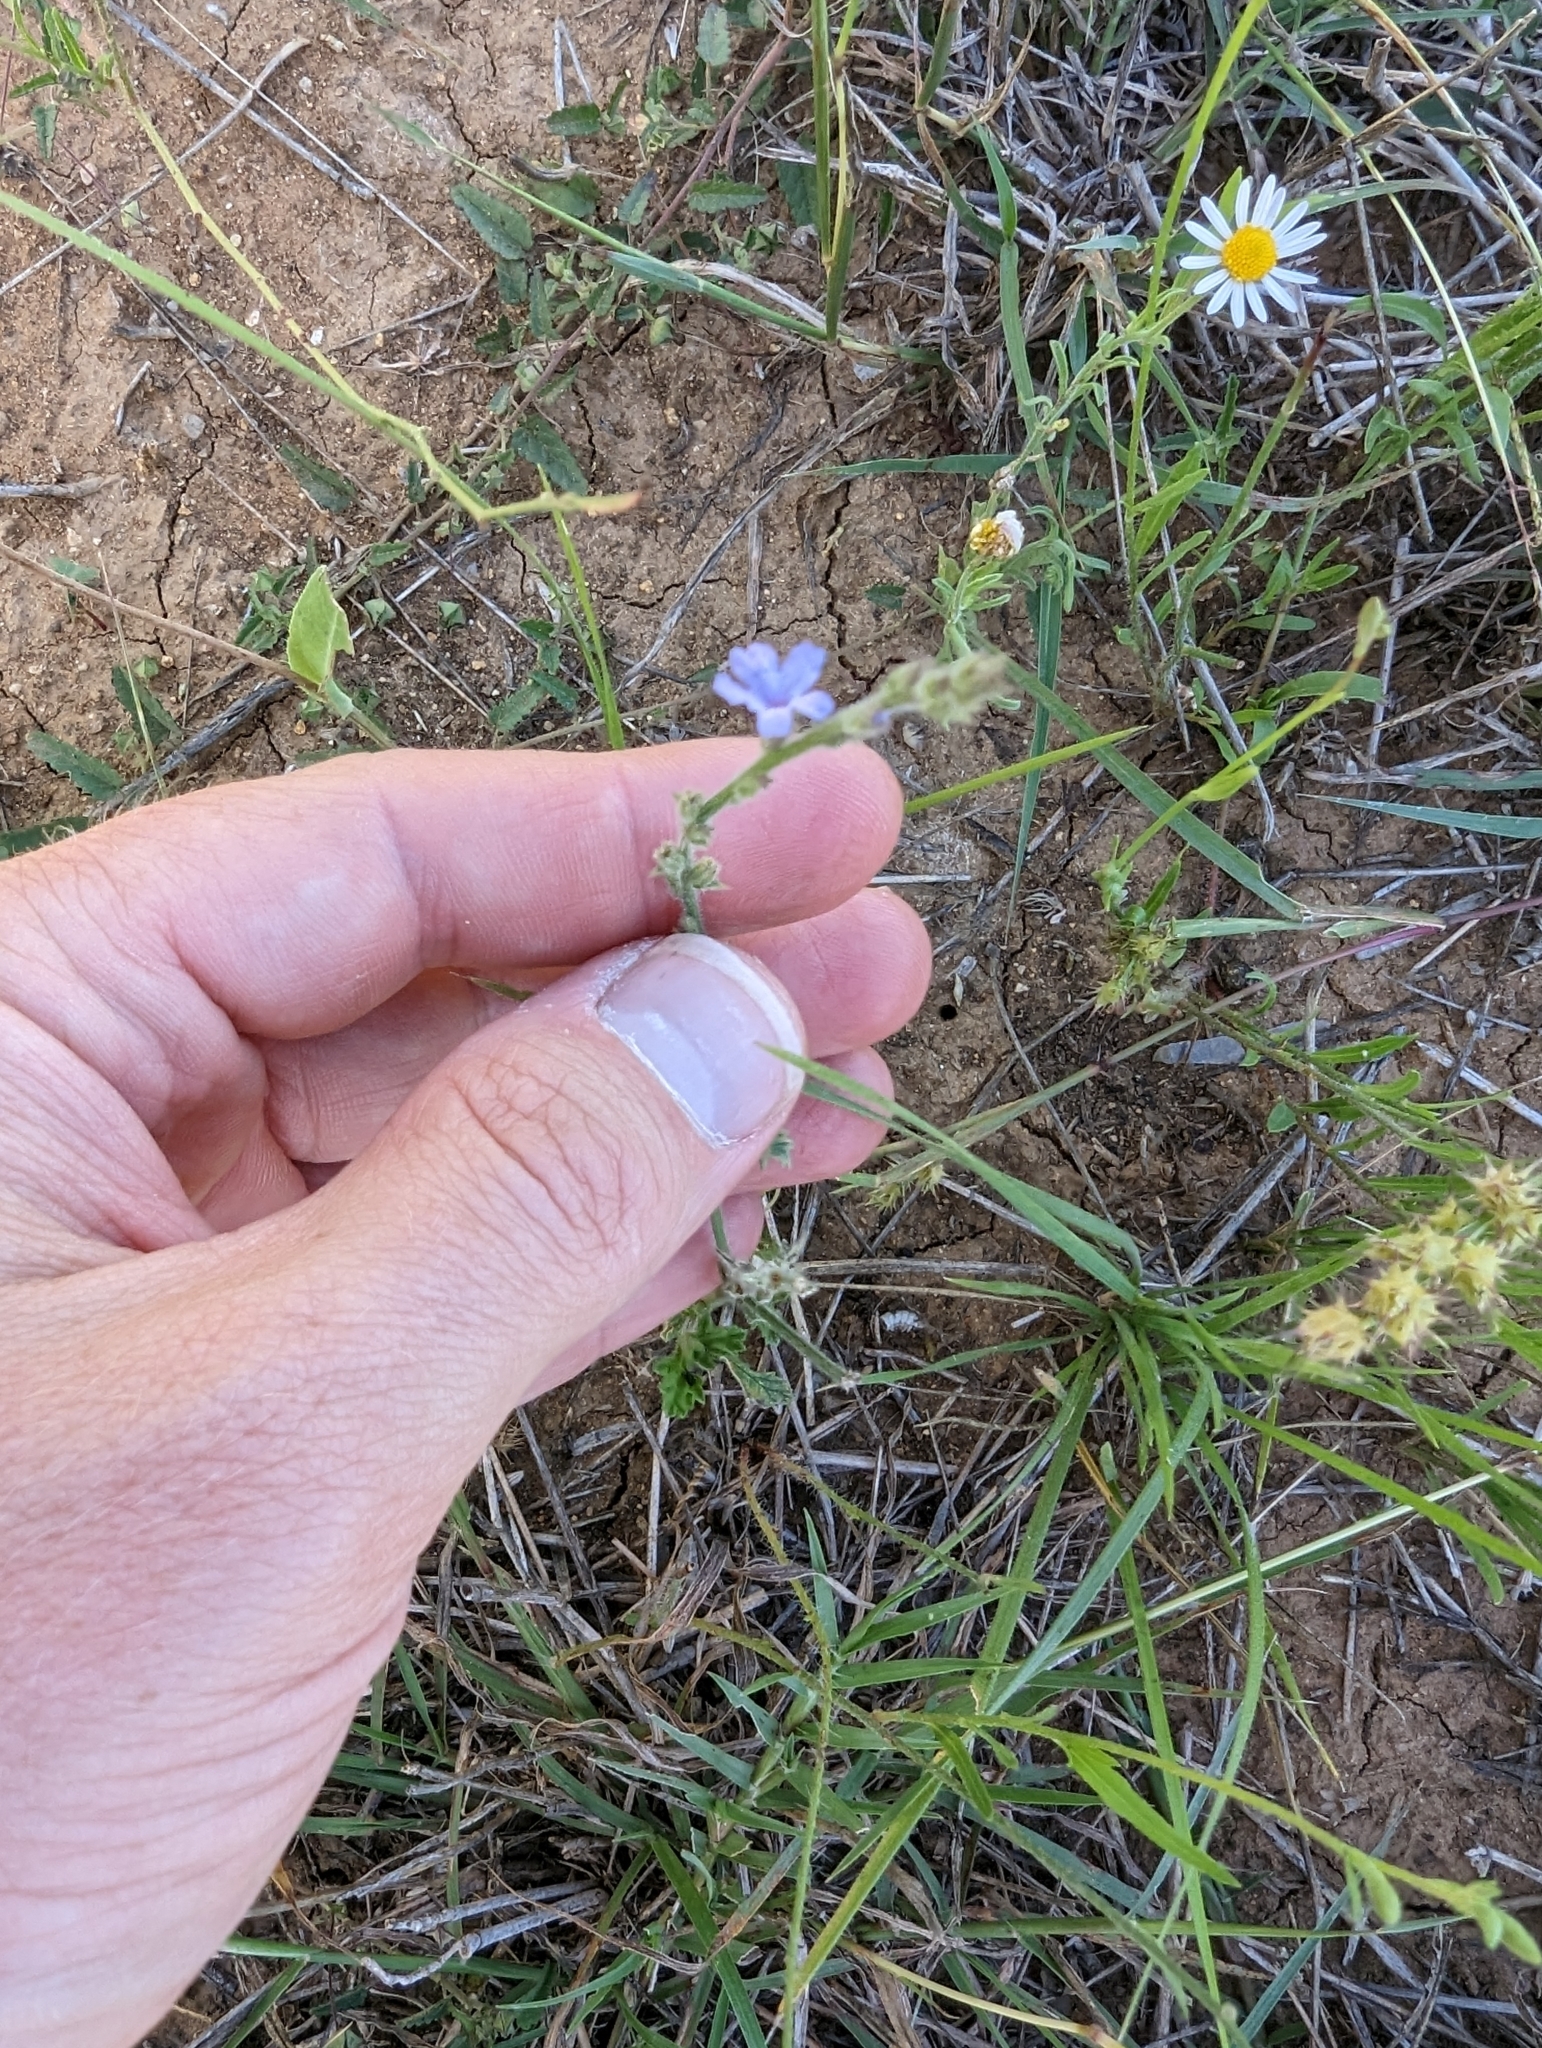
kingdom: Plantae
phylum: Tracheophyta
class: Magnoliopsida
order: Lamiales
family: Verbenaceae
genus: Verbena
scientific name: Verbena canescens
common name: Gray vervain
